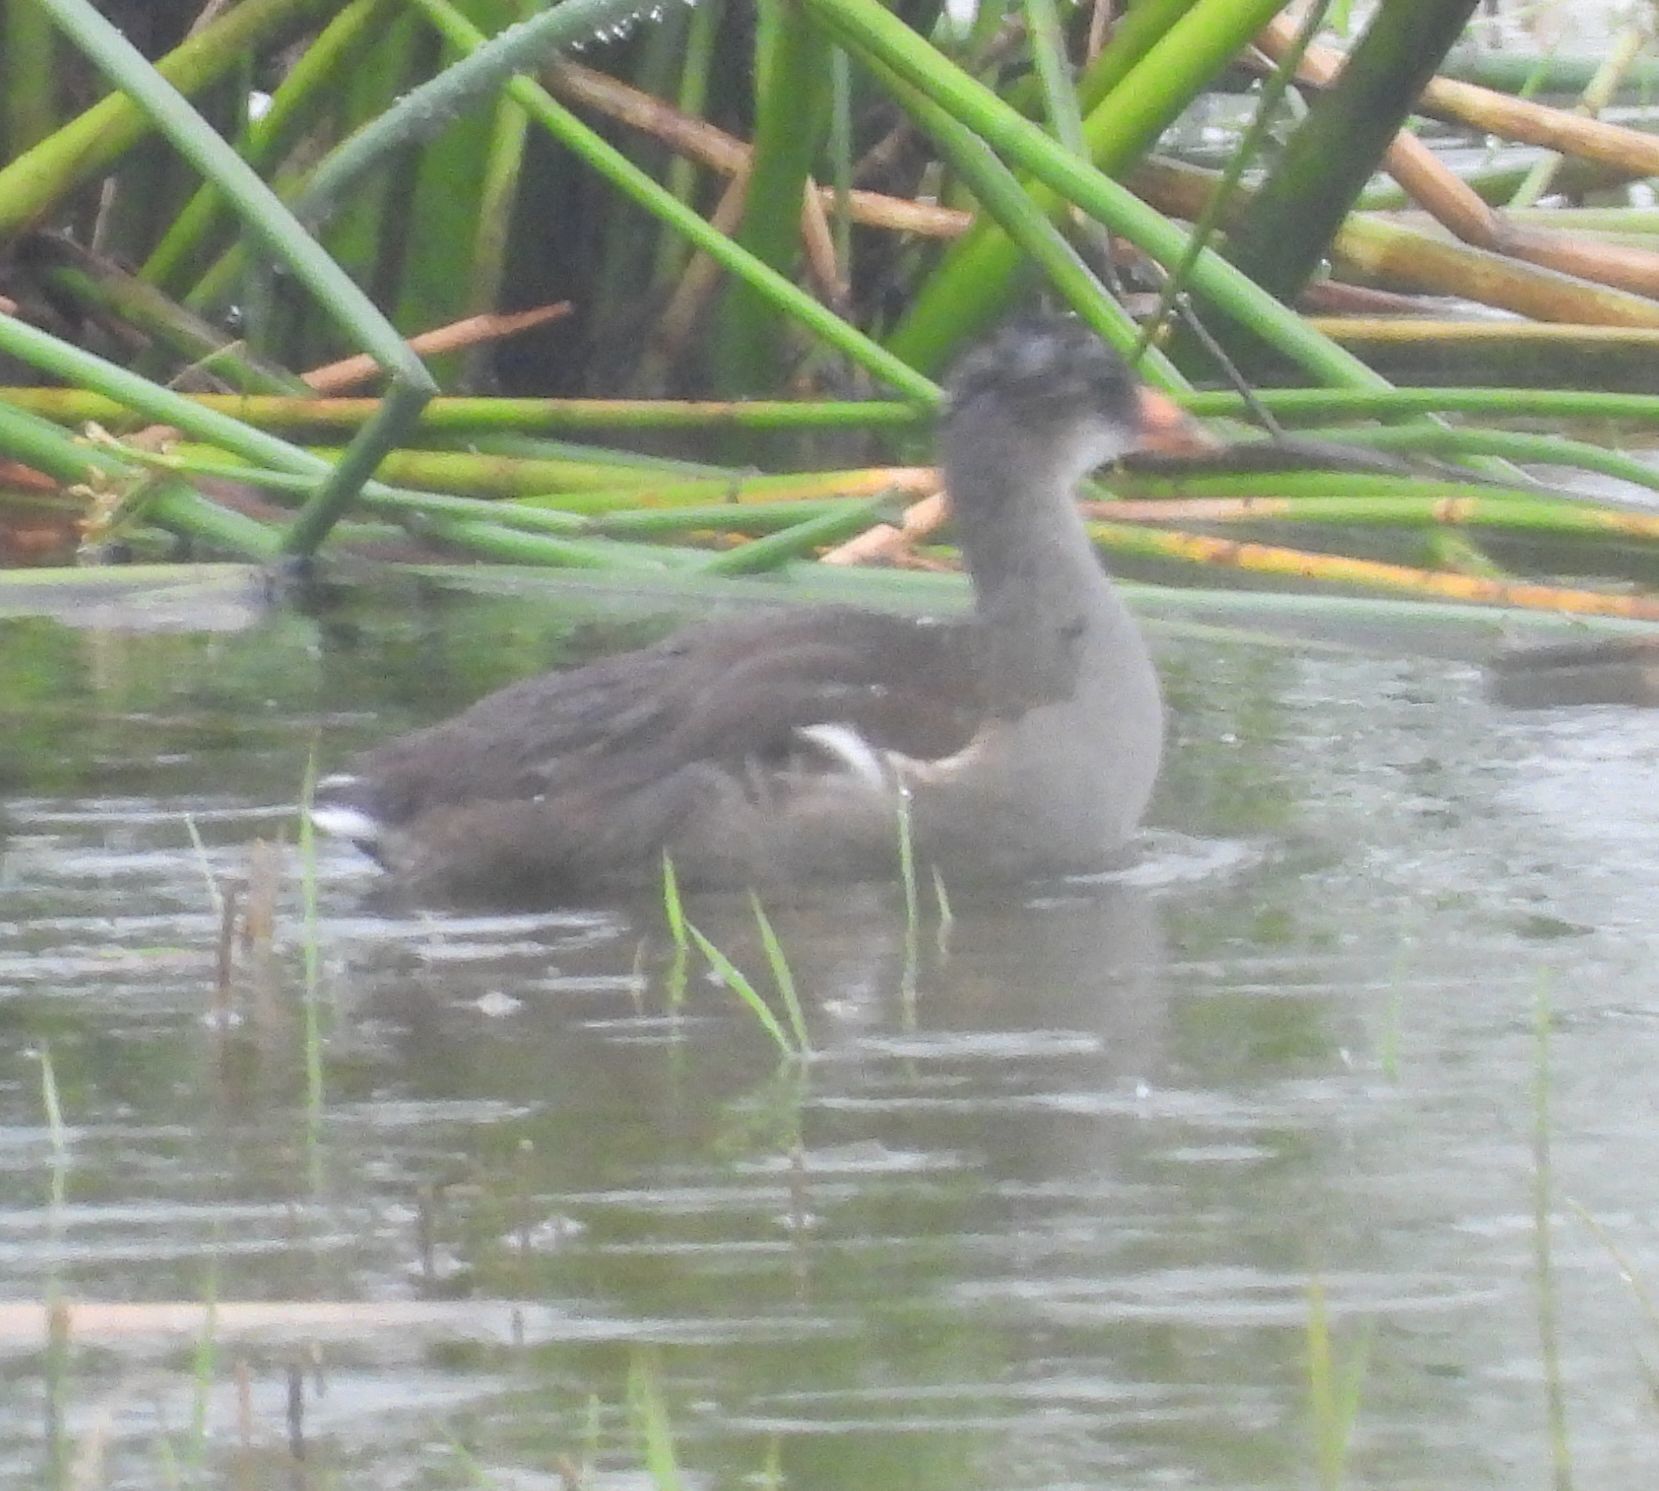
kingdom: Animalia
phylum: Chordata
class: Aves
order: Gruiformes
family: Rallidae
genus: Gallinula
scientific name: Gallinula chloropus
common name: Common moorhen
